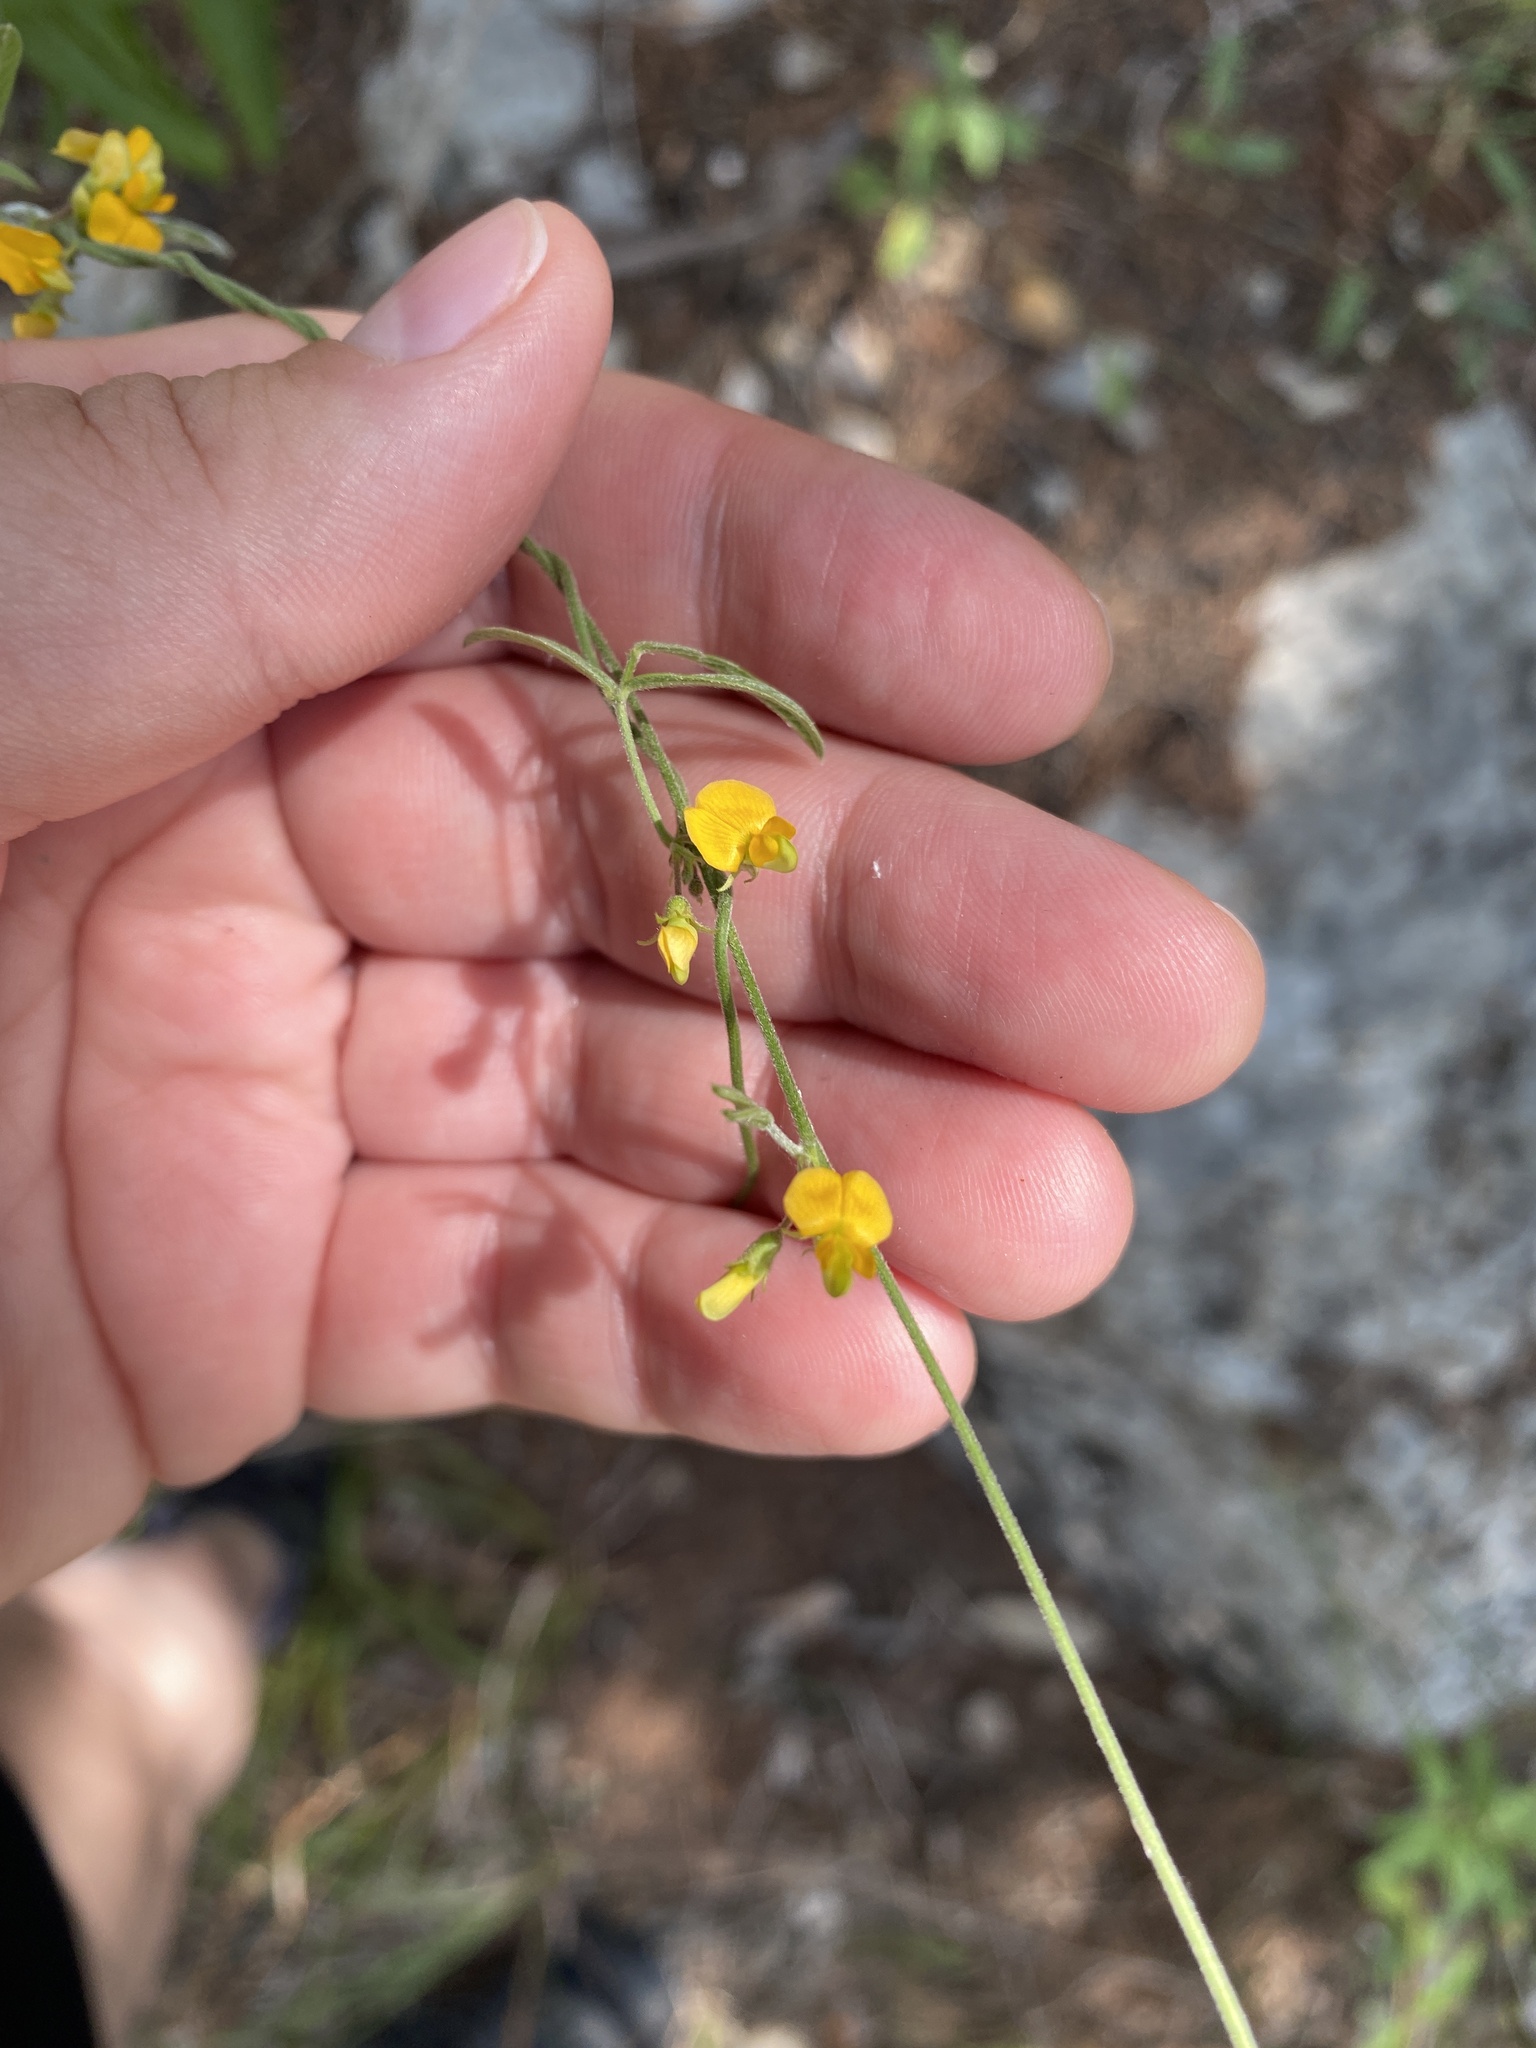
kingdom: Plantae
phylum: Tracheophyta
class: Magnoliopsida
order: Fabales
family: Fabaceae
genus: Rhynchosia
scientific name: Rhynchosia senna
